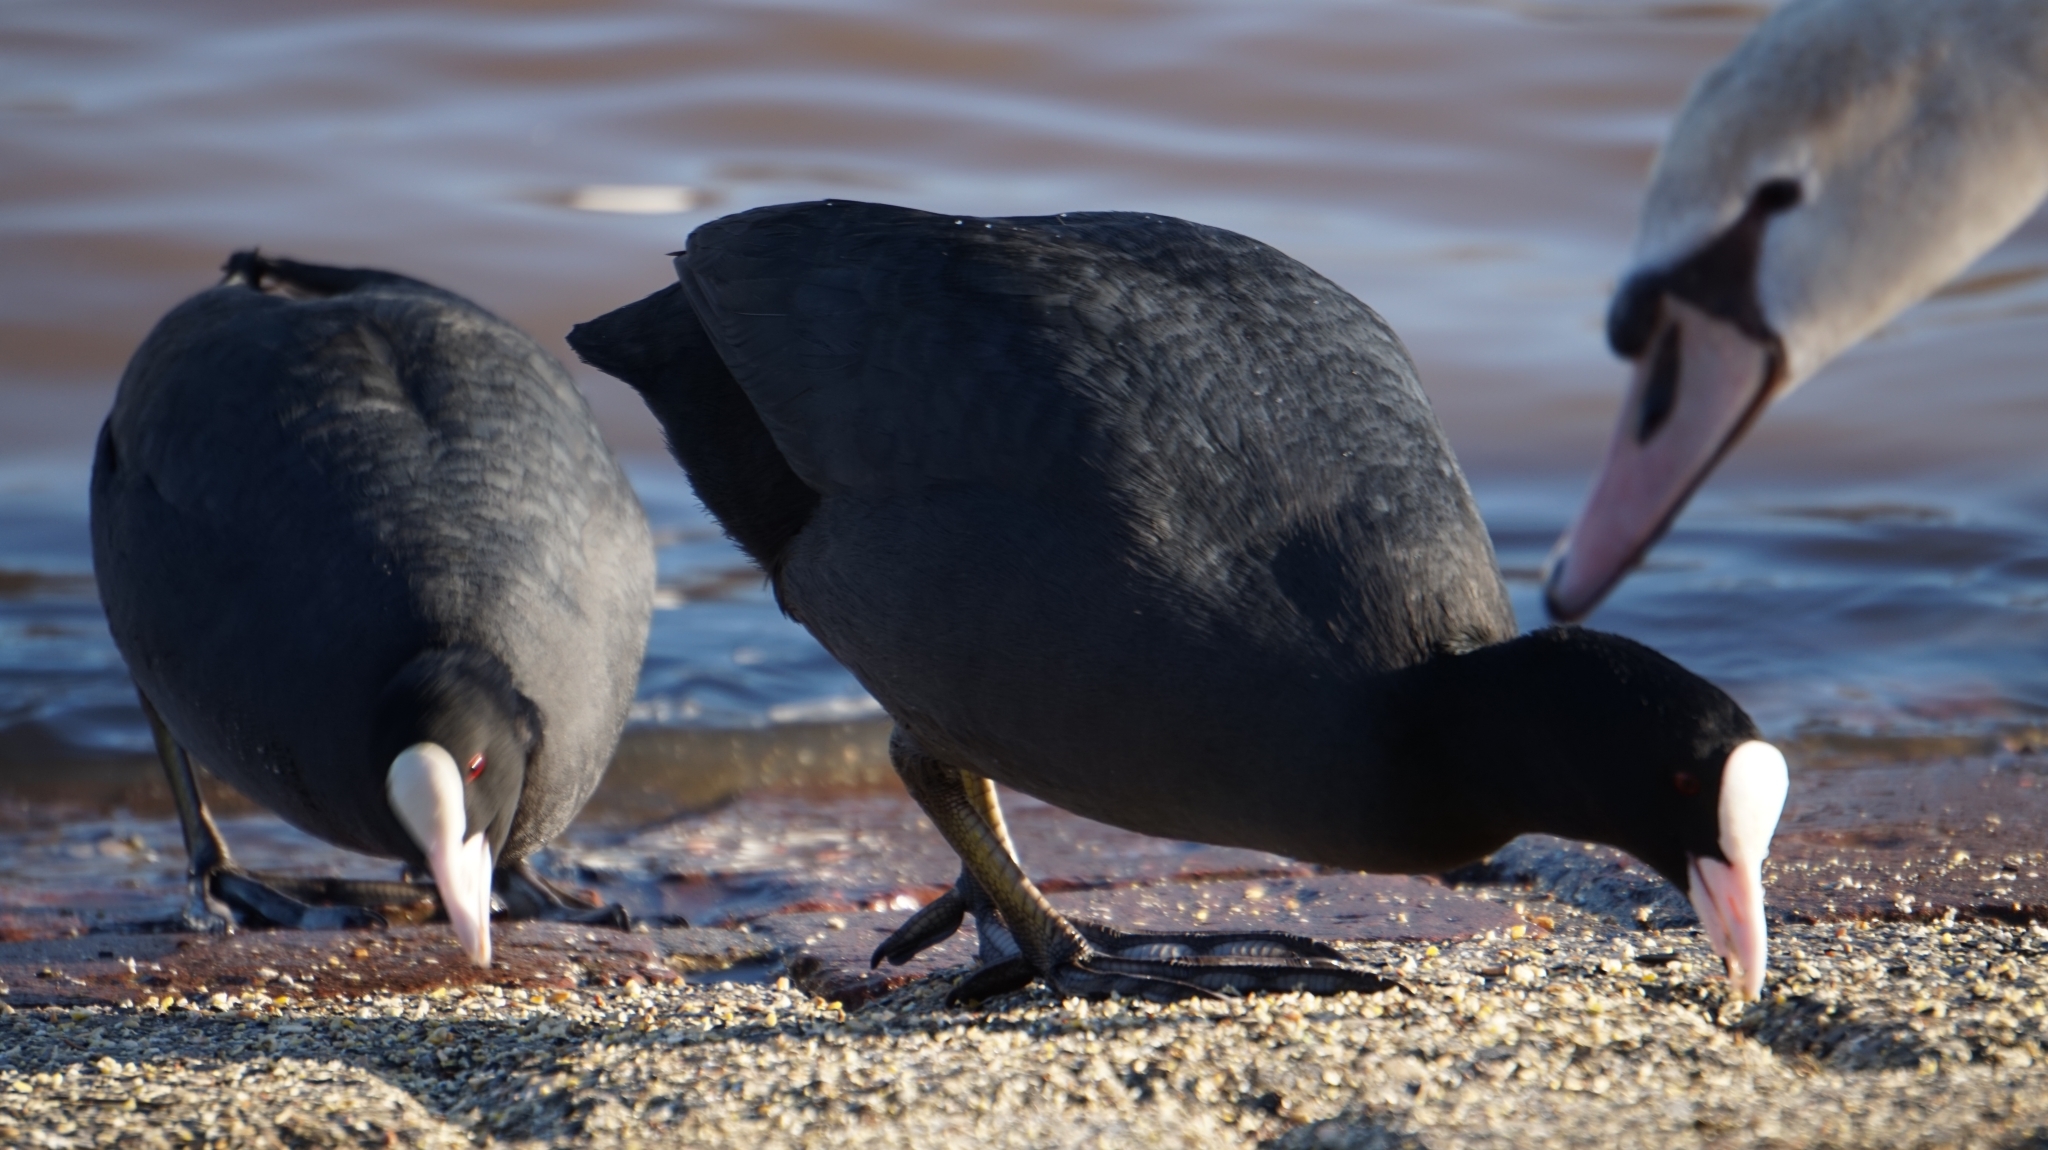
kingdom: Animalia
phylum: Chordata
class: Aves
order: Gruiformes
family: Rallidae
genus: Fulica
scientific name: Fulica atra
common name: Eurasian coot
